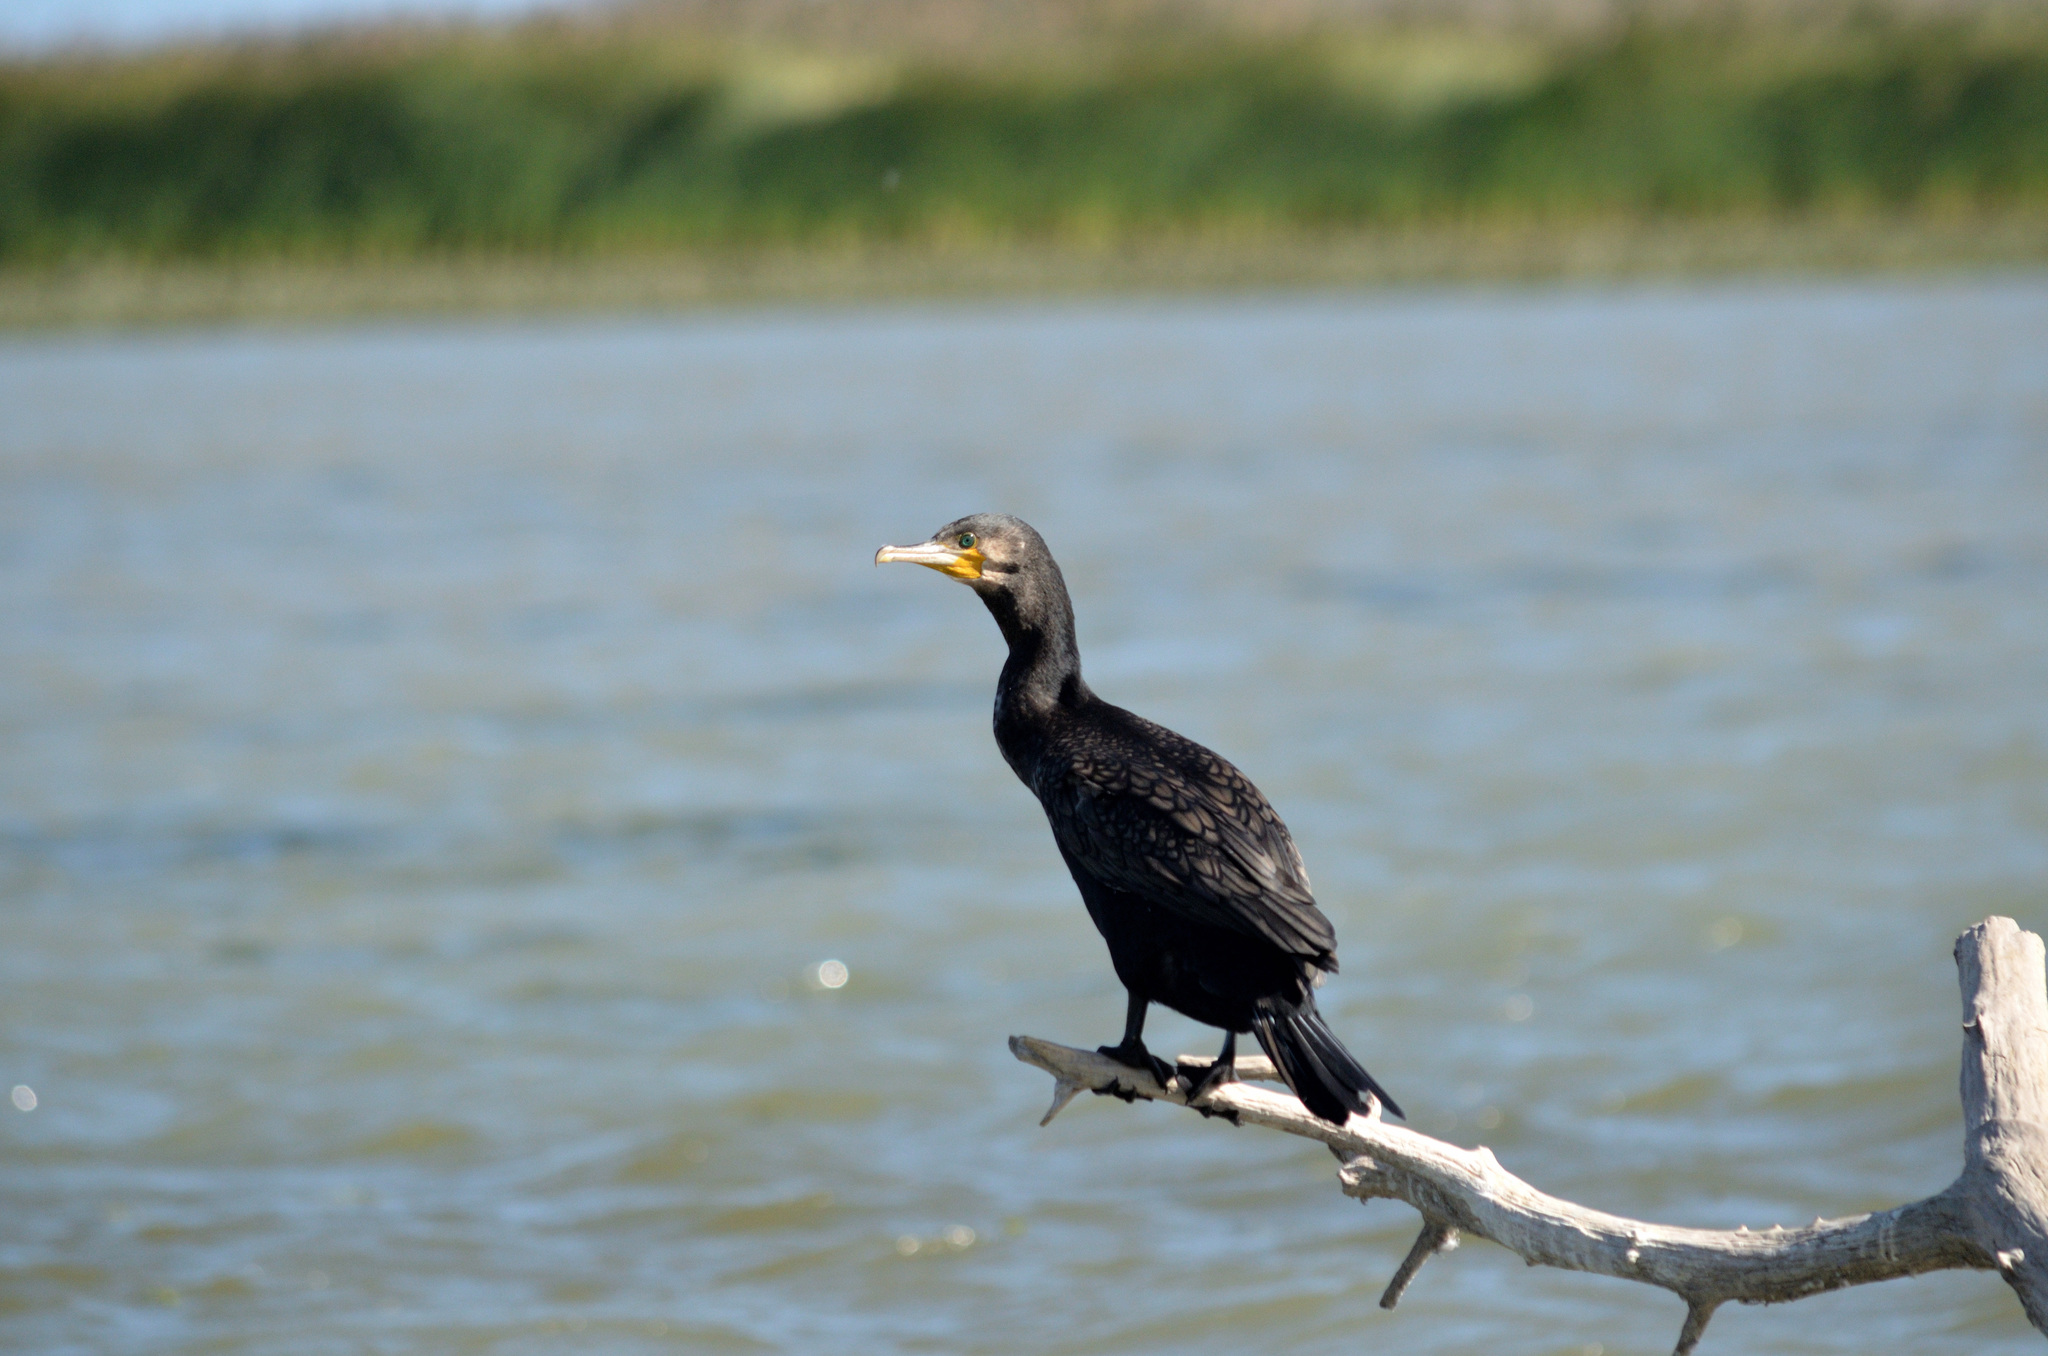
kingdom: Animalia
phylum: Chordata
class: Aves
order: Suliformes
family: Phalacrocoracidae
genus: Phalacrocorax
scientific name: Phalacrocorax carbo
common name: Great cormorant
